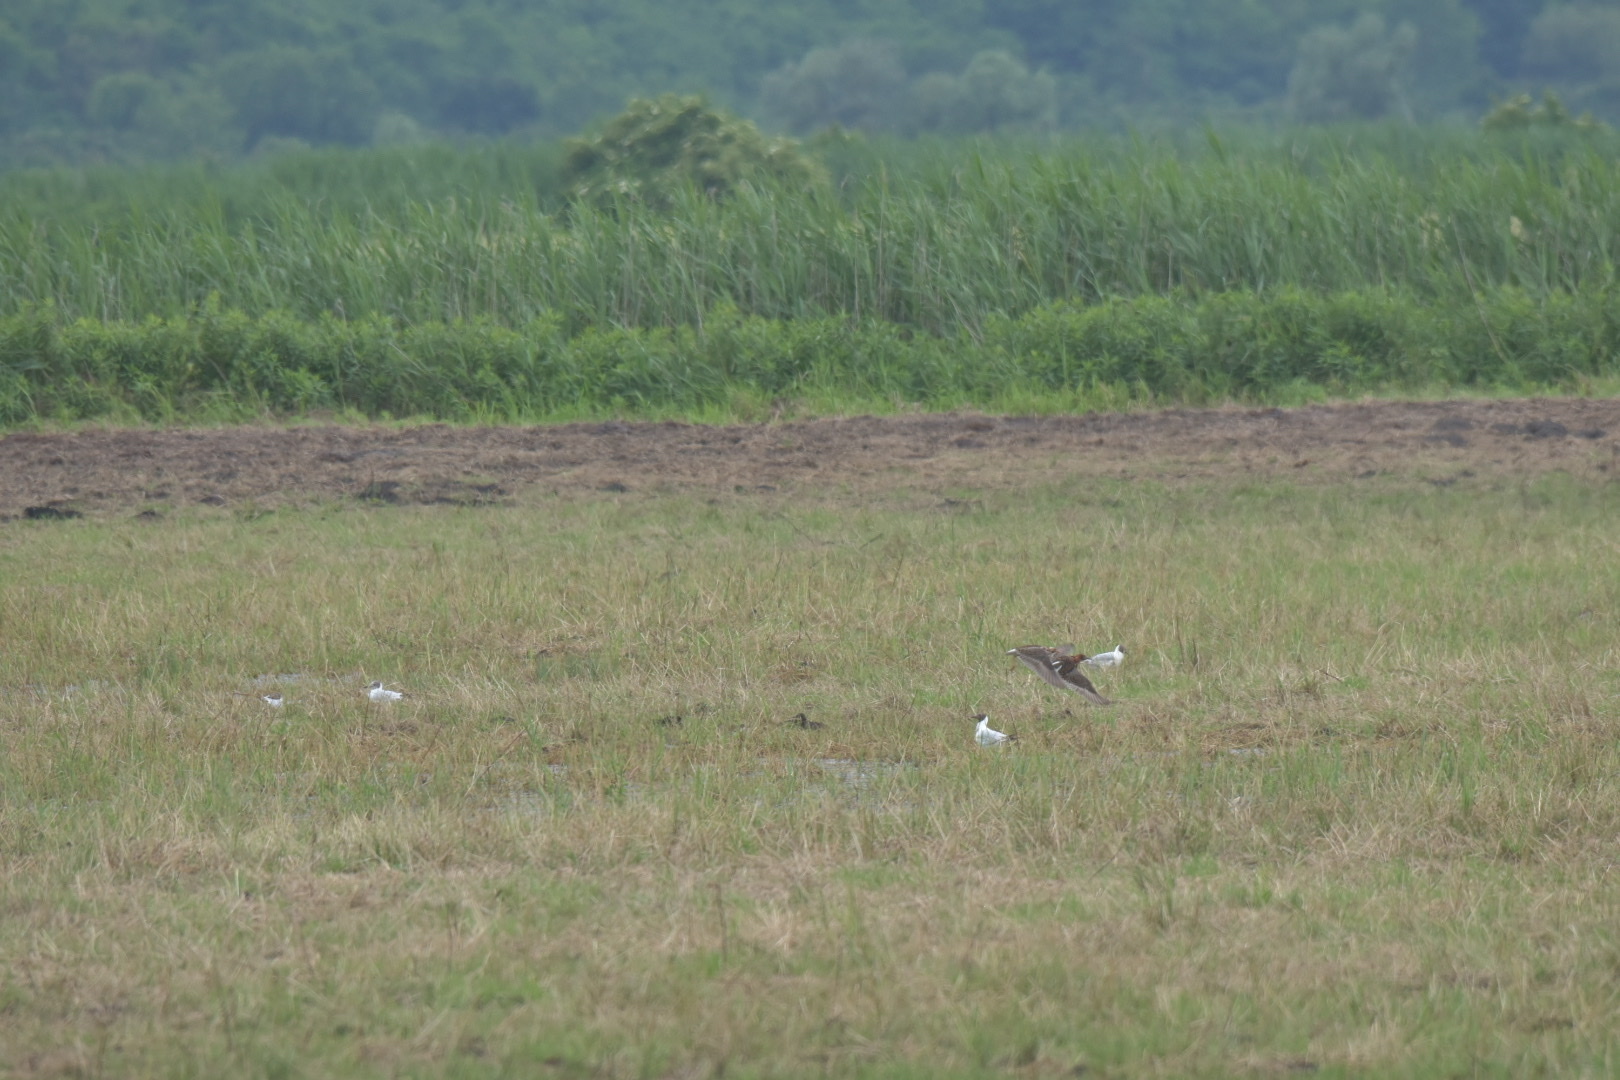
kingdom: Animalia
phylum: Chordata
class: Aves
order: Charadriiformes
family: Scolopacidae
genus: Calidris
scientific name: Calidris pugnax
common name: Ruff
